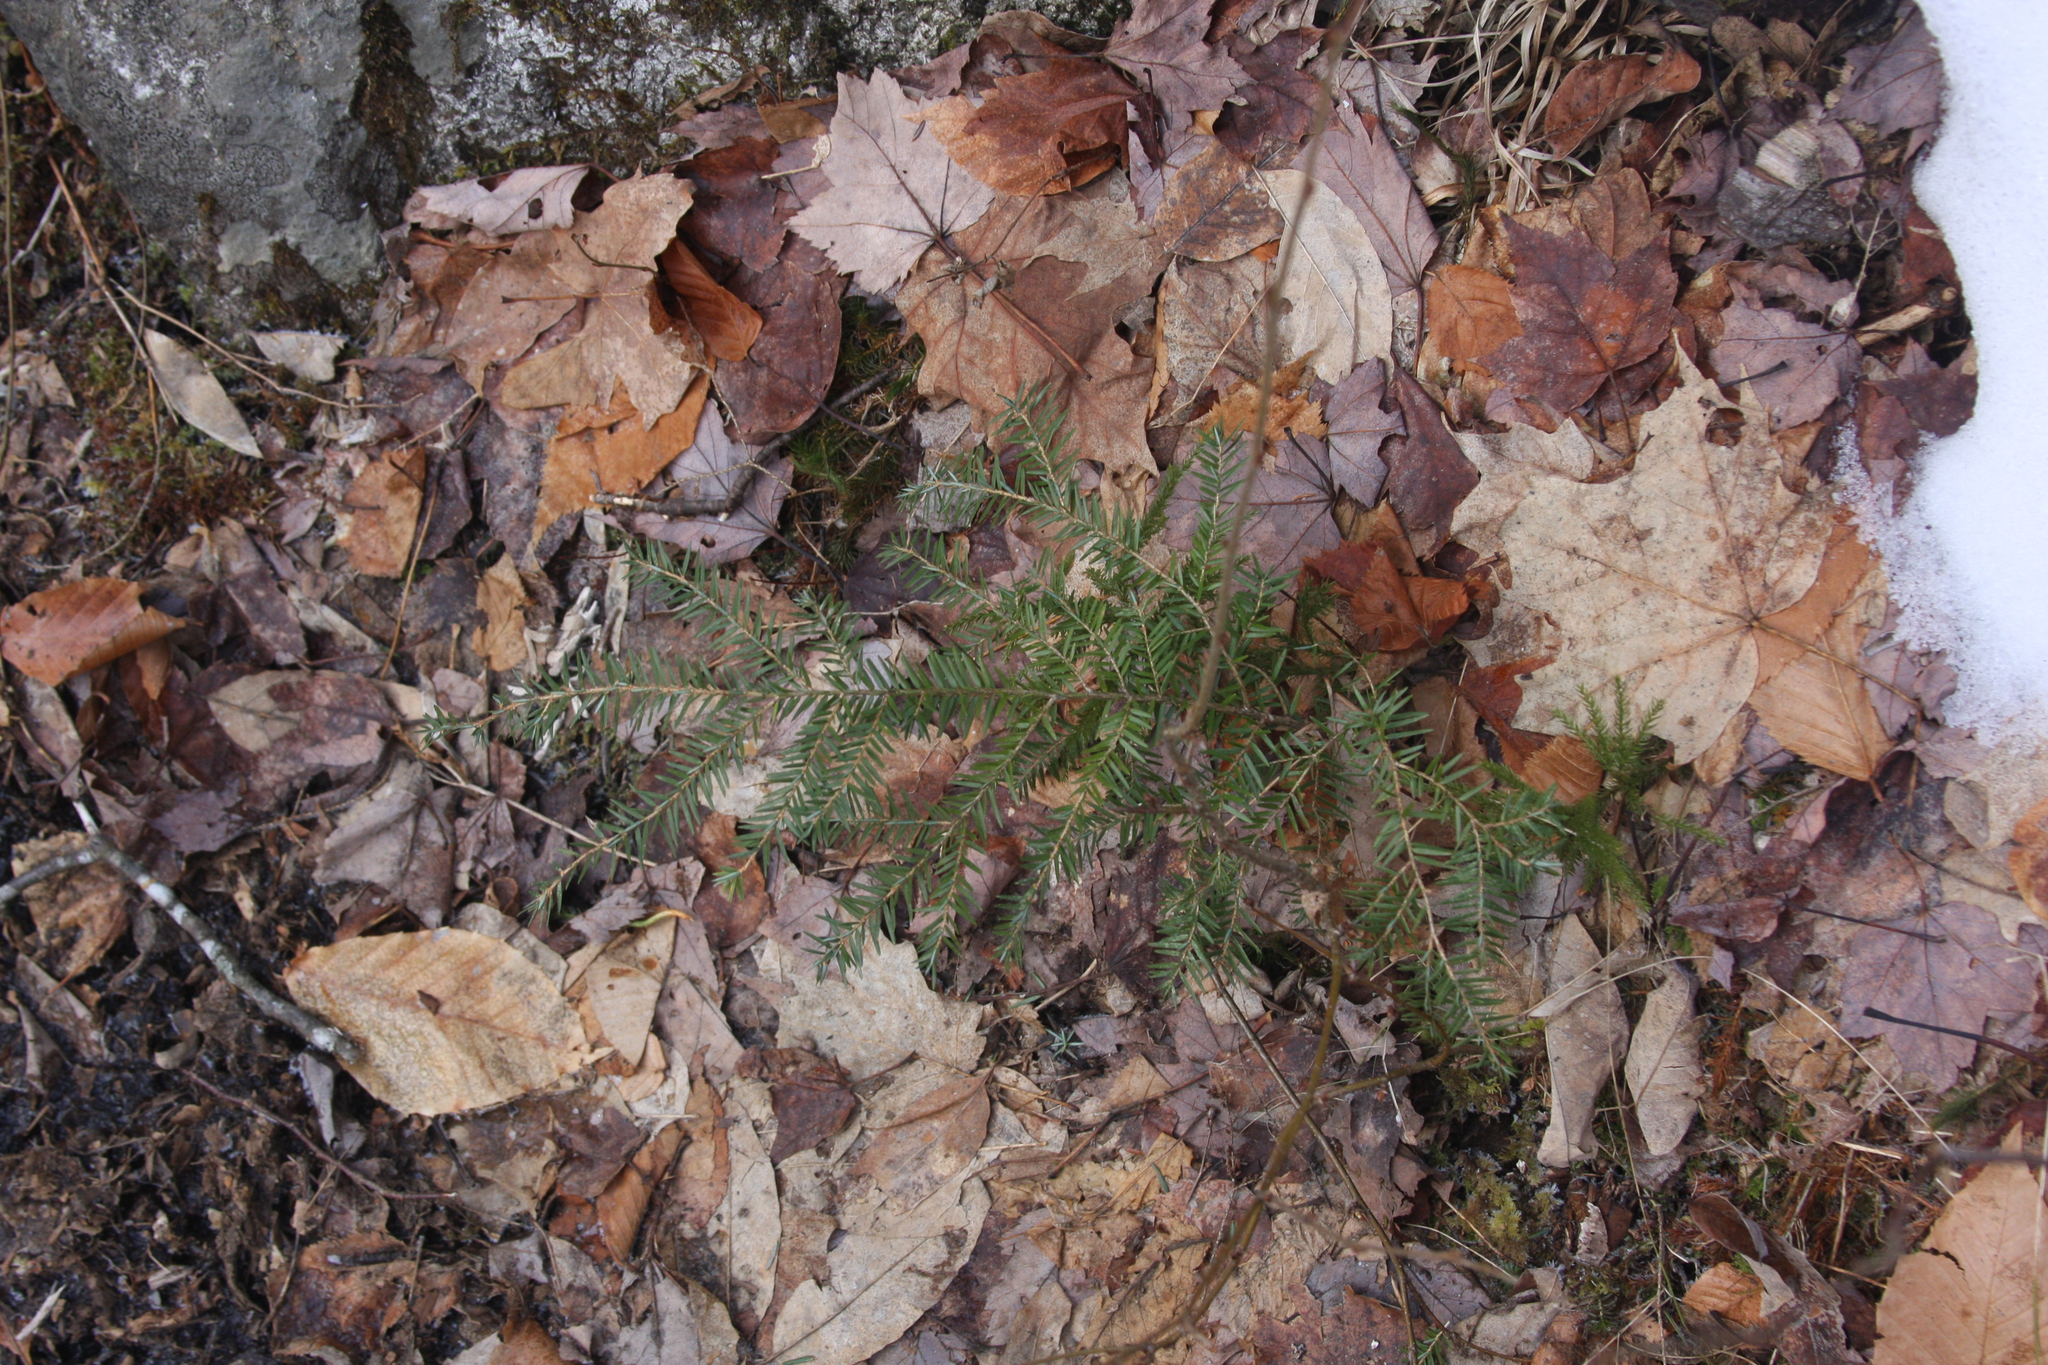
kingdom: Plantae
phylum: Tracheophyta
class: Pinopsida
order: Pinales
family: Pinaceae
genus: Tsuga
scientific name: Tsuga canadensis
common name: Eastern hemlock
